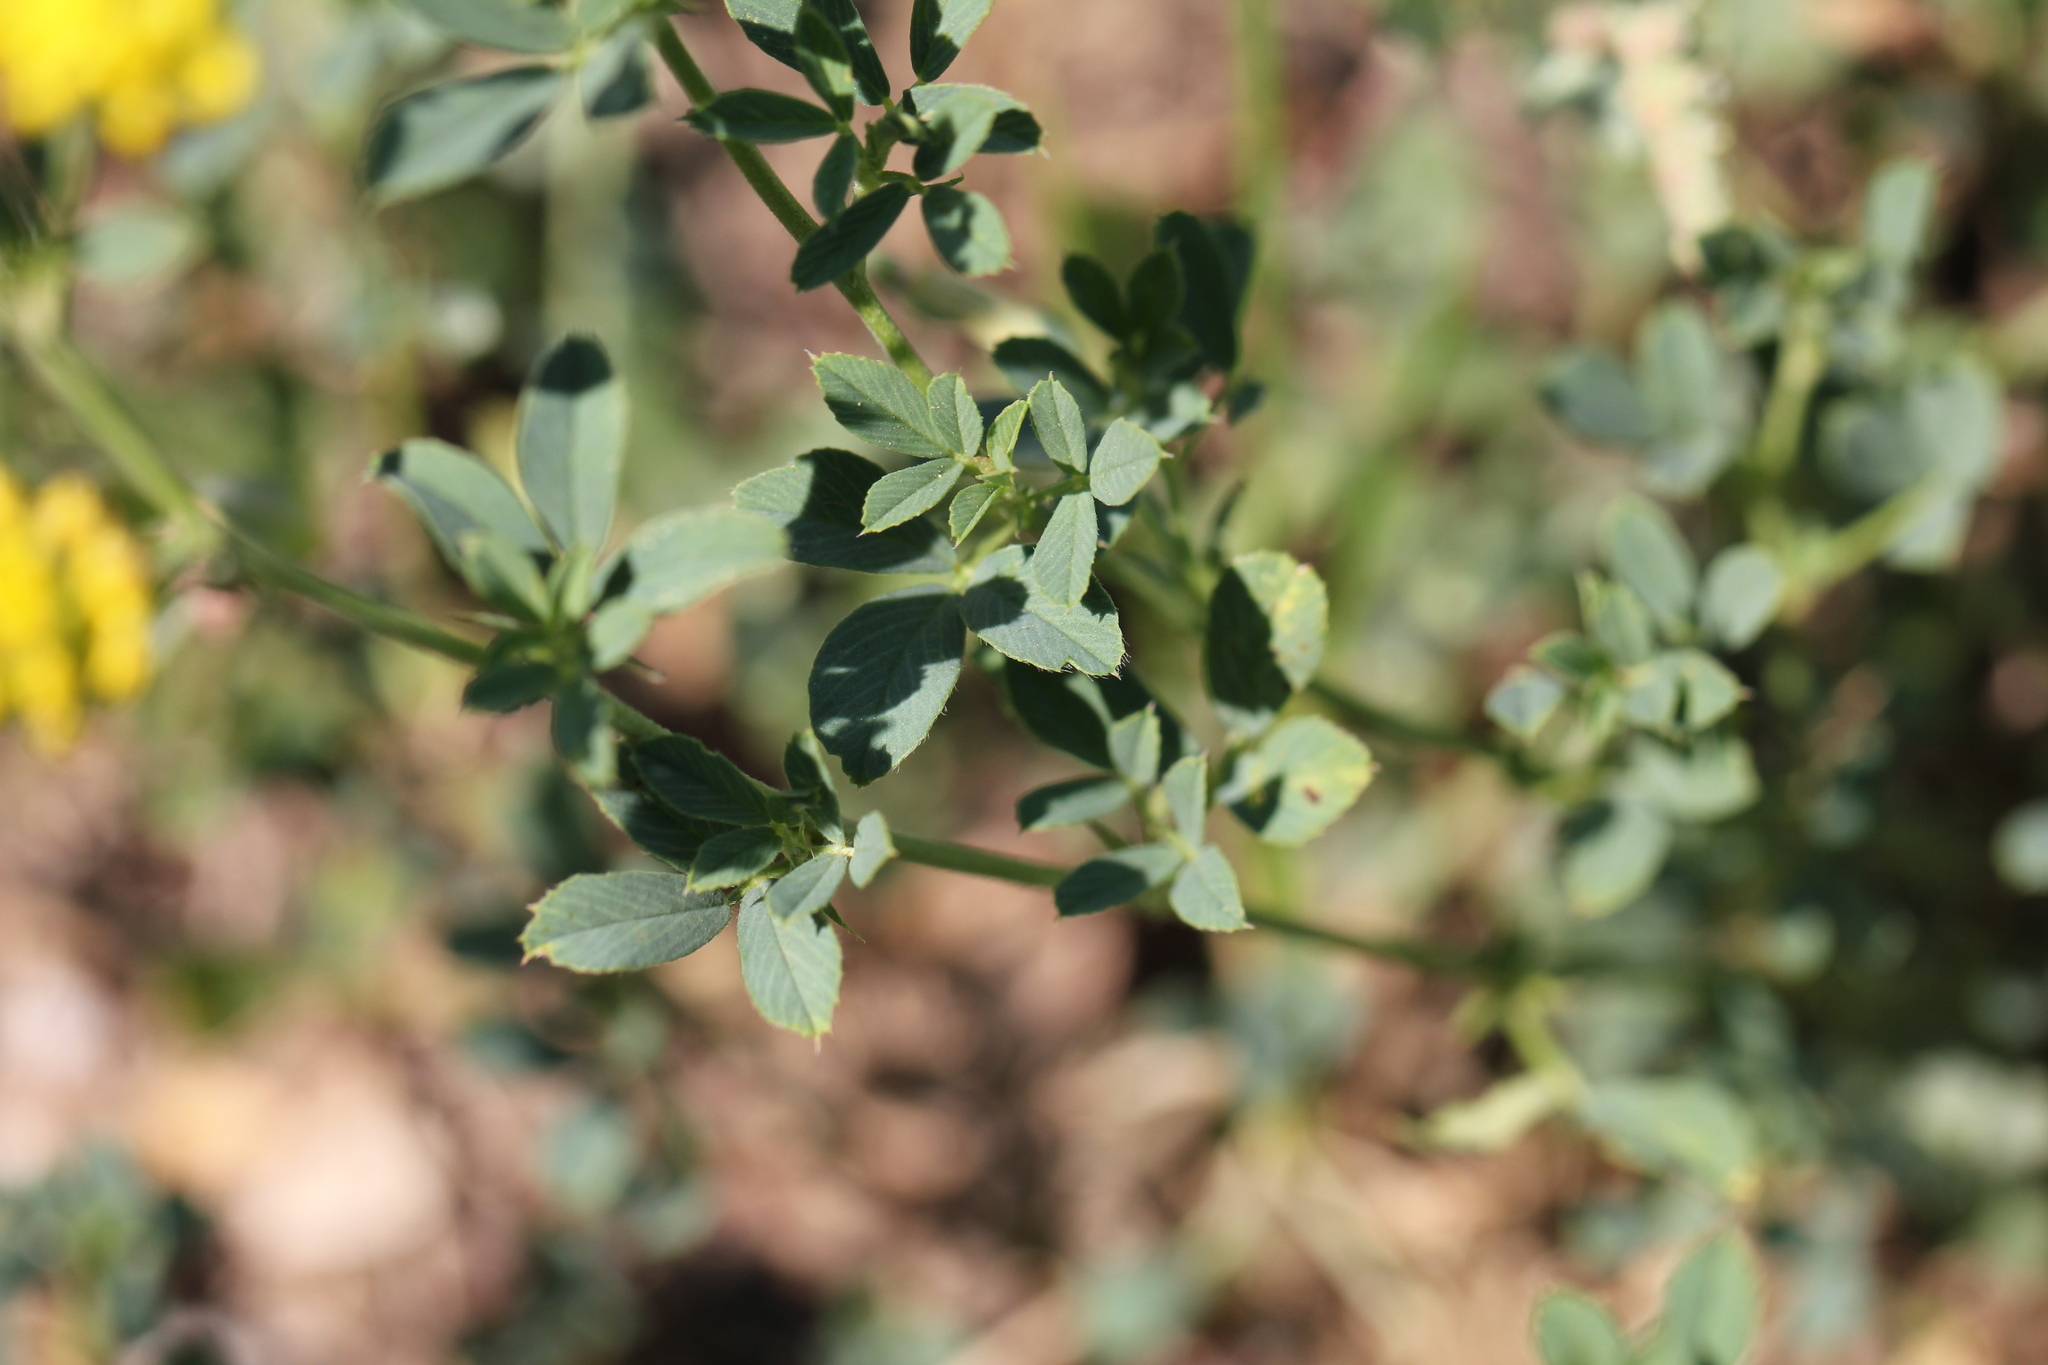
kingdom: Plantae
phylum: Tracheophyta
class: Magnoliopsida
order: Fabales
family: Fabaceae
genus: Medicago
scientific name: Medicago falcata
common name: Sickle medick
